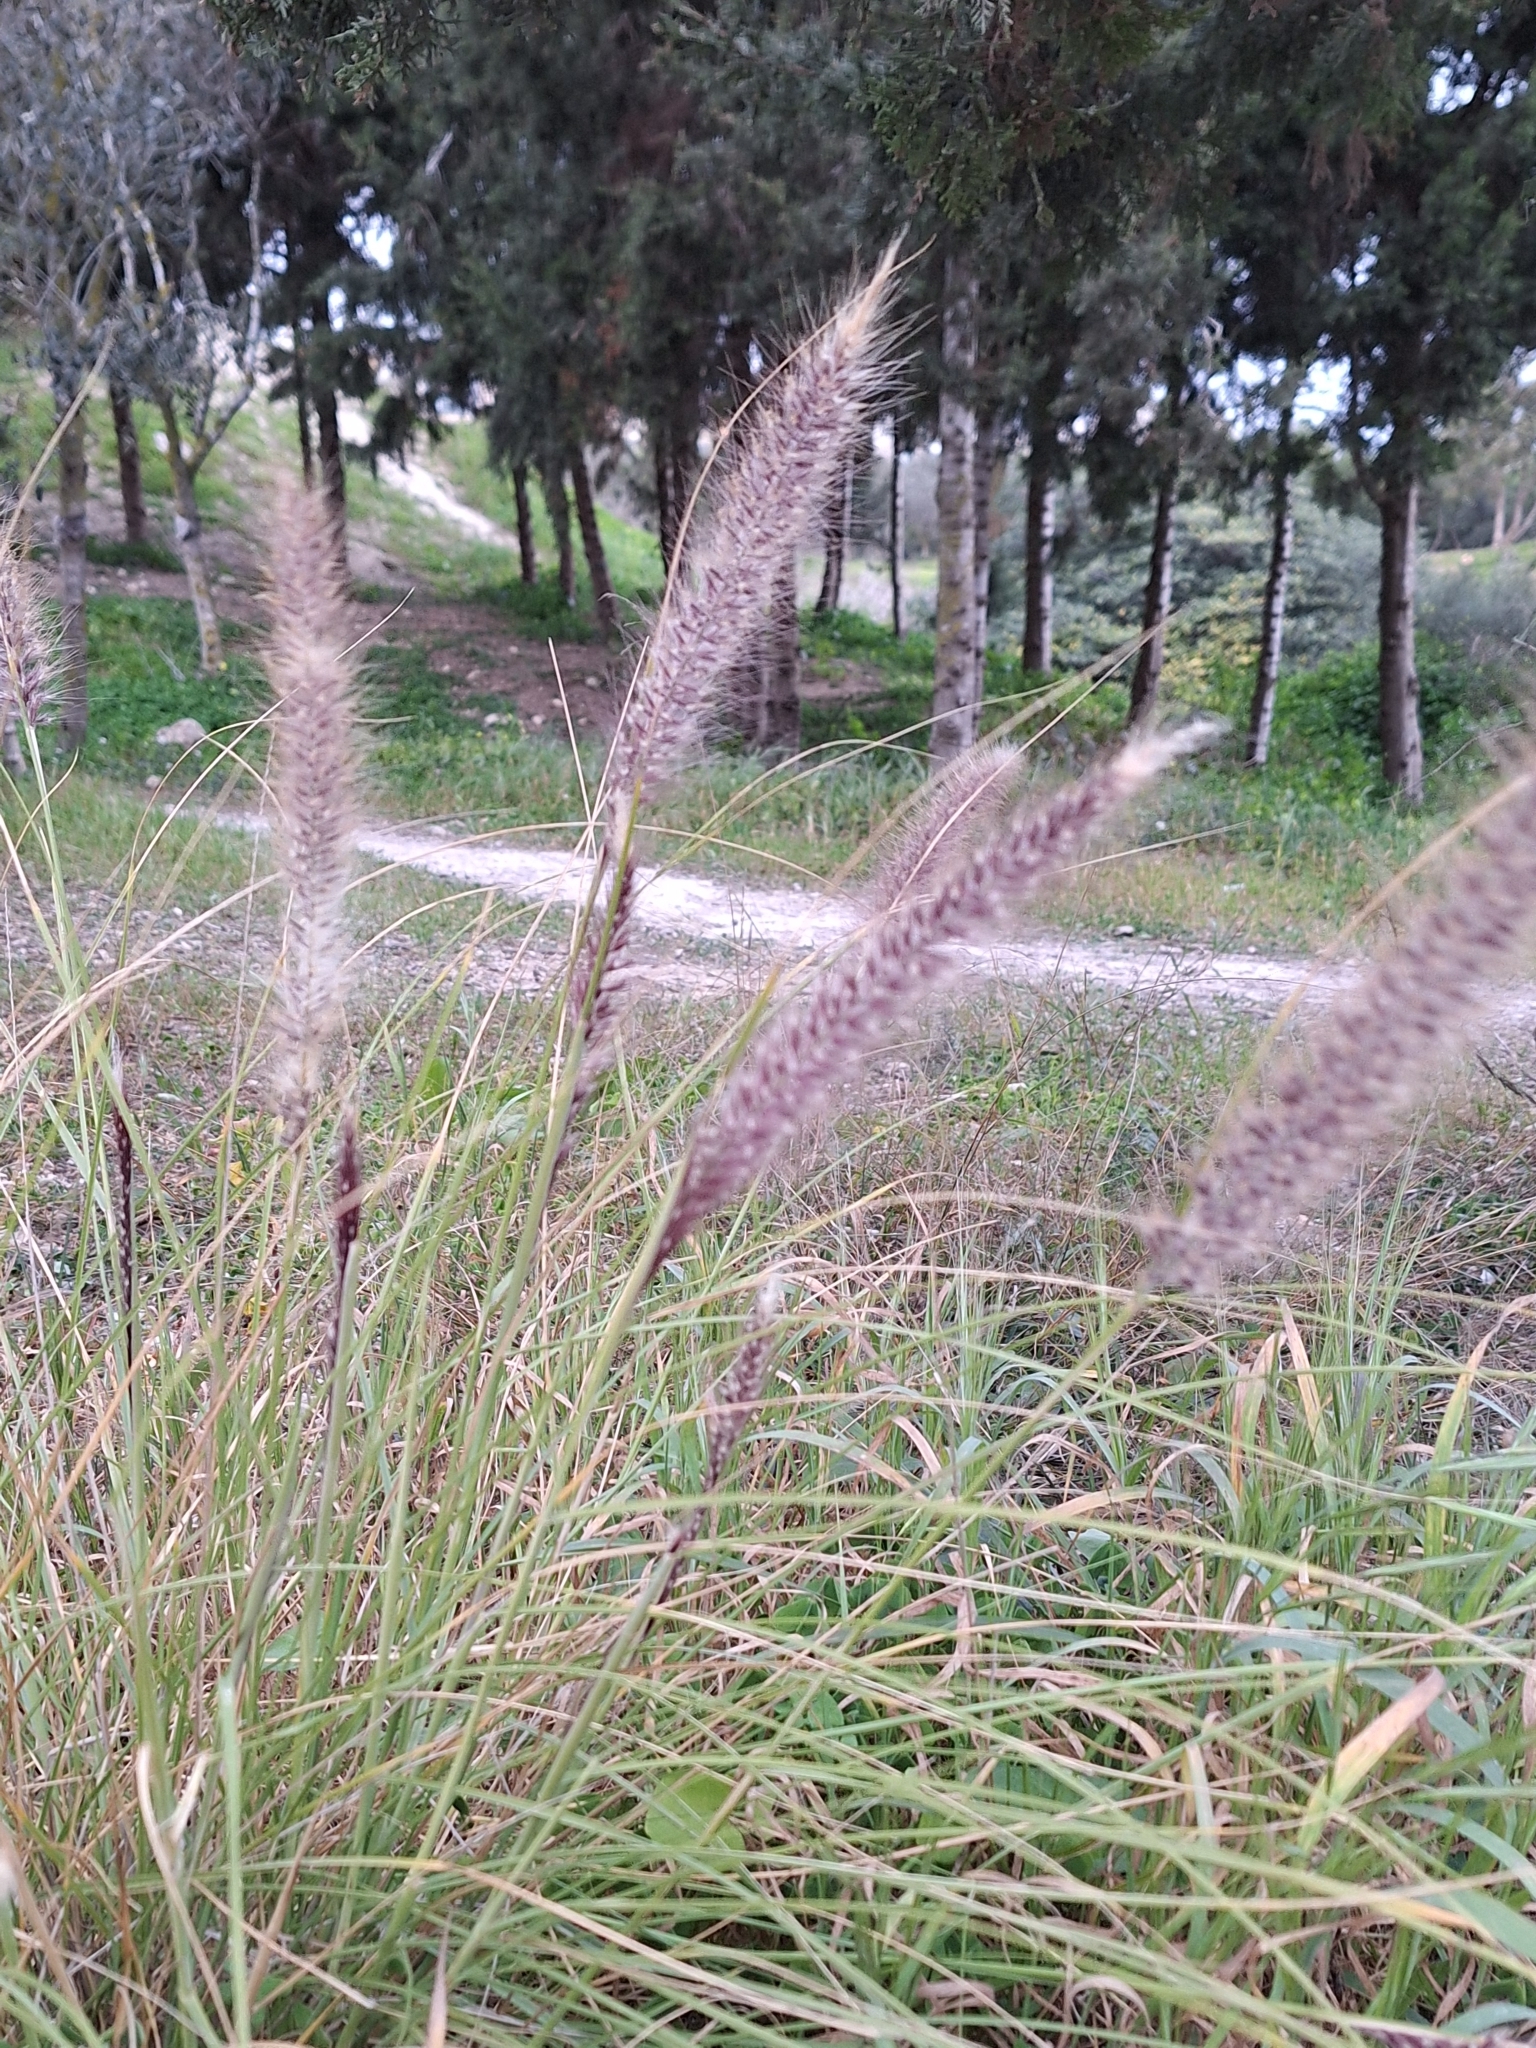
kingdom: Plantae
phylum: Tracheophyta
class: Liliopsida
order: Poales
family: Poaceae
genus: Cenchrus
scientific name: Cenchrus setaceus
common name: Crimson fountaingrass
